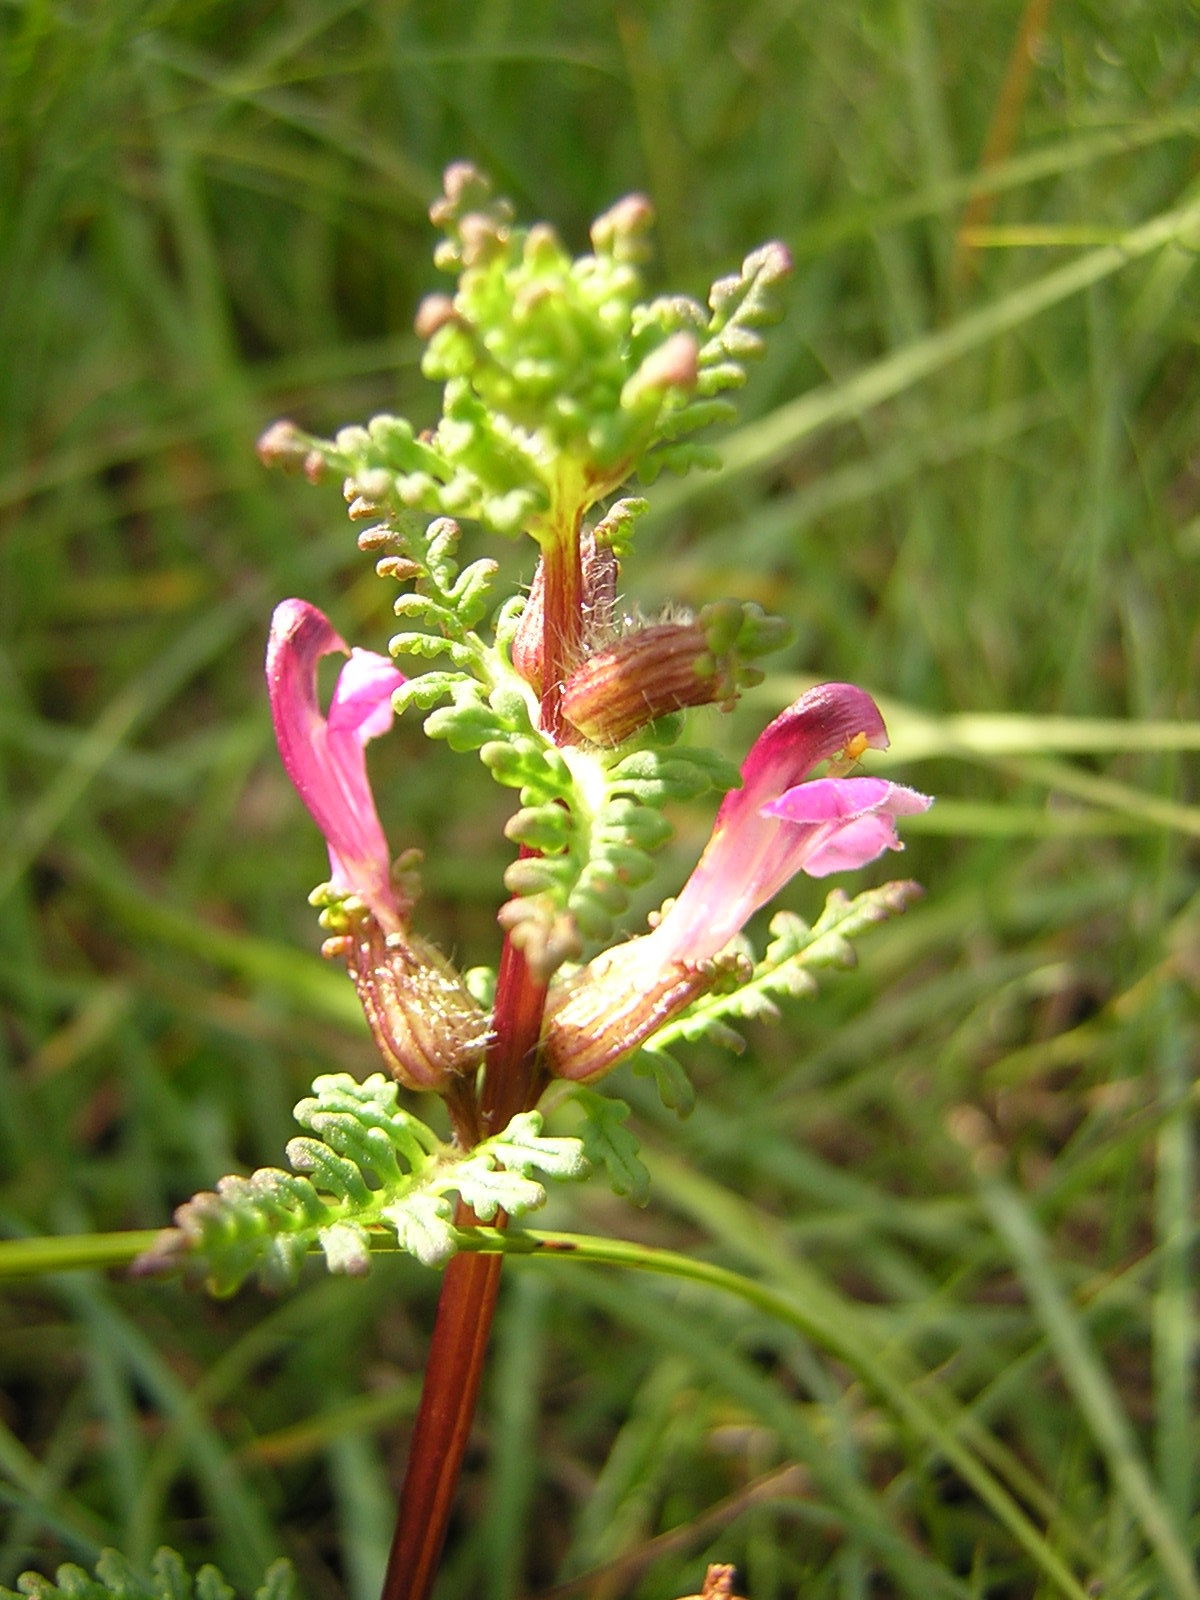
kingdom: Plantae
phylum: Tracheophyta
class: Magnoliopsida
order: Lamiales
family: Orobanchaceae
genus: Pedicularis
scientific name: Pedicularis palustris
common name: Marsh lousewort
